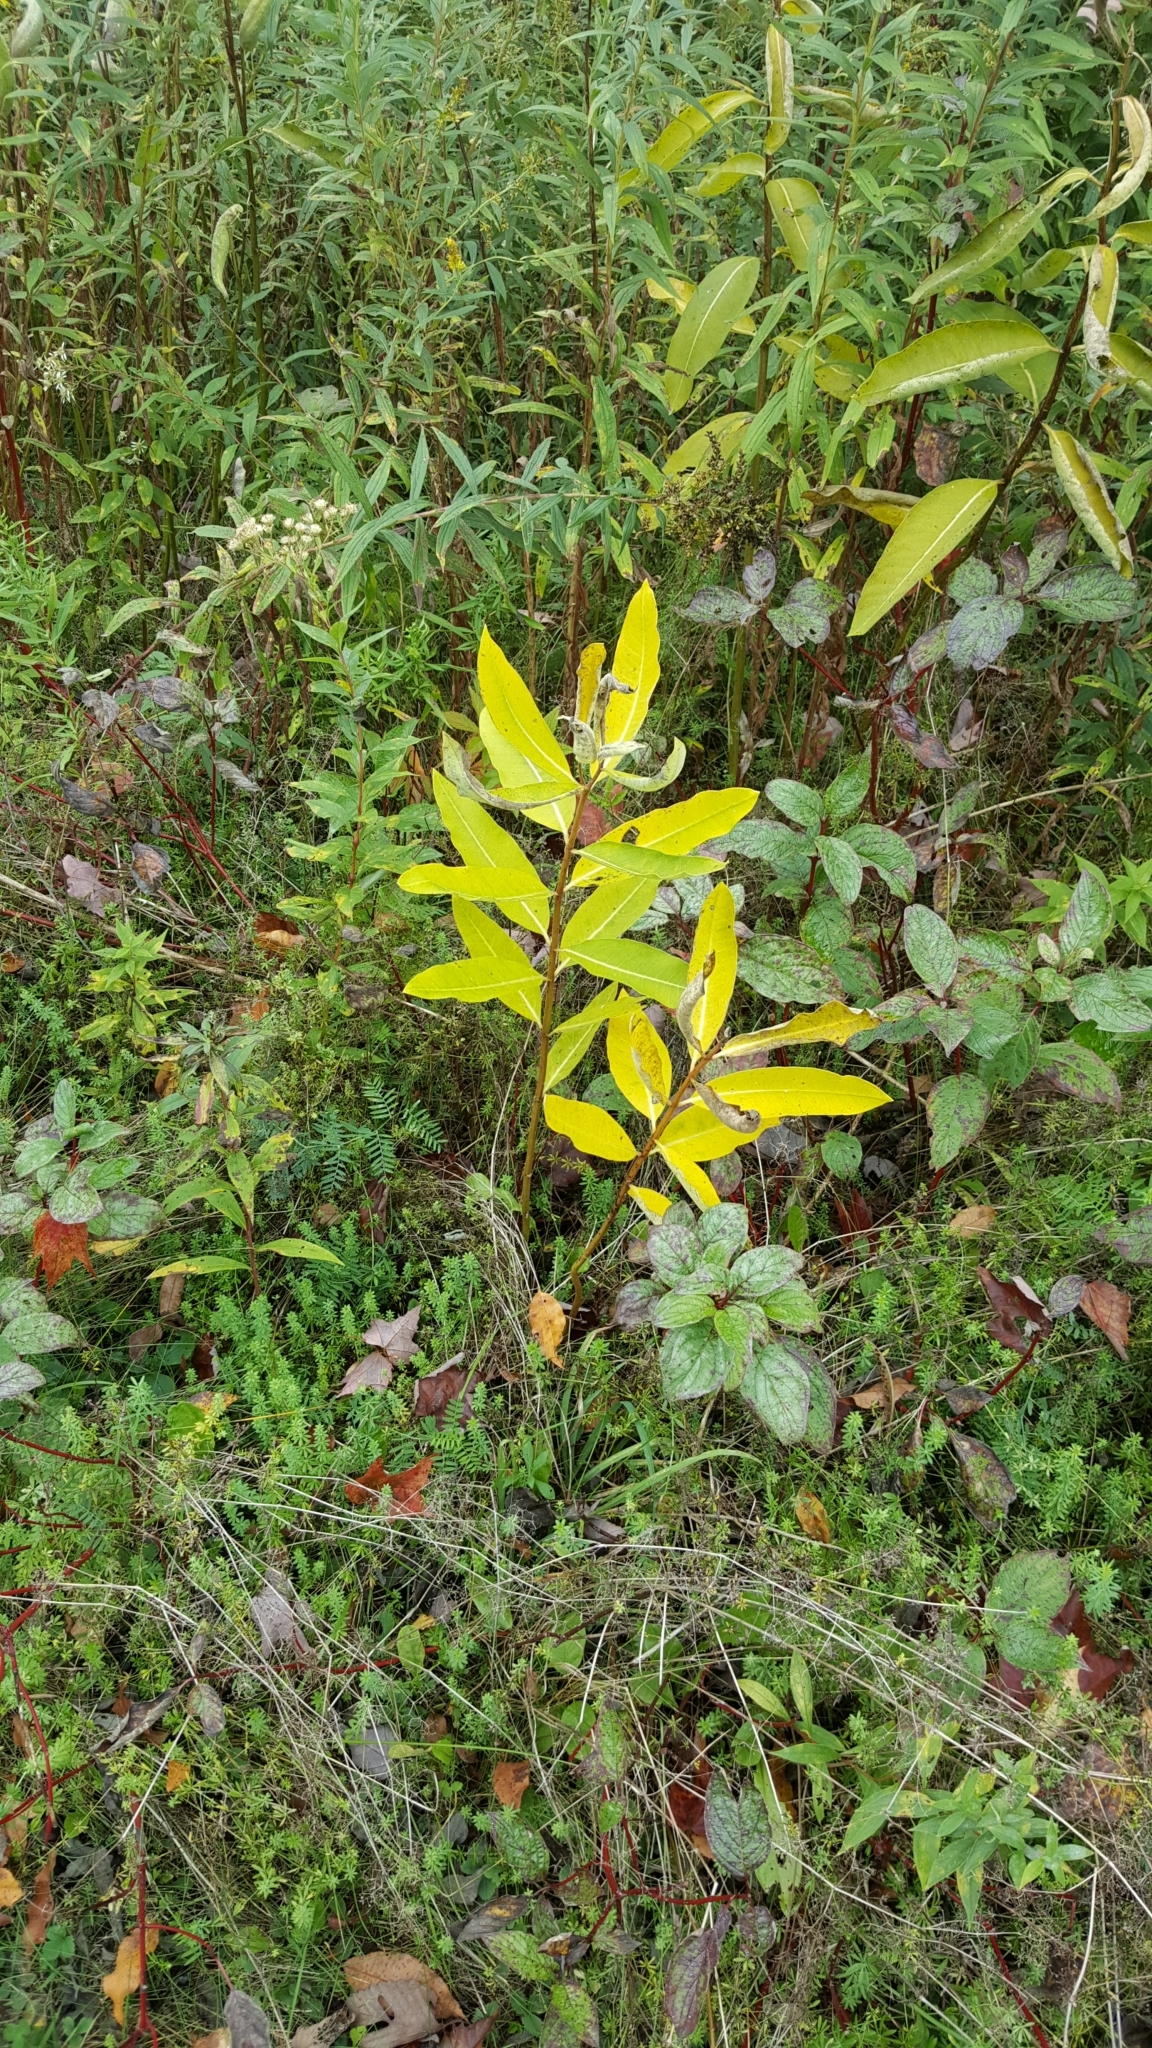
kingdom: Plantae
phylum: Tracheophyta
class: Magnoliopsida
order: Gentianales
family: Apocynaceae
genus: Asclepias
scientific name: Asclepias syriaca
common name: Common milkweed
